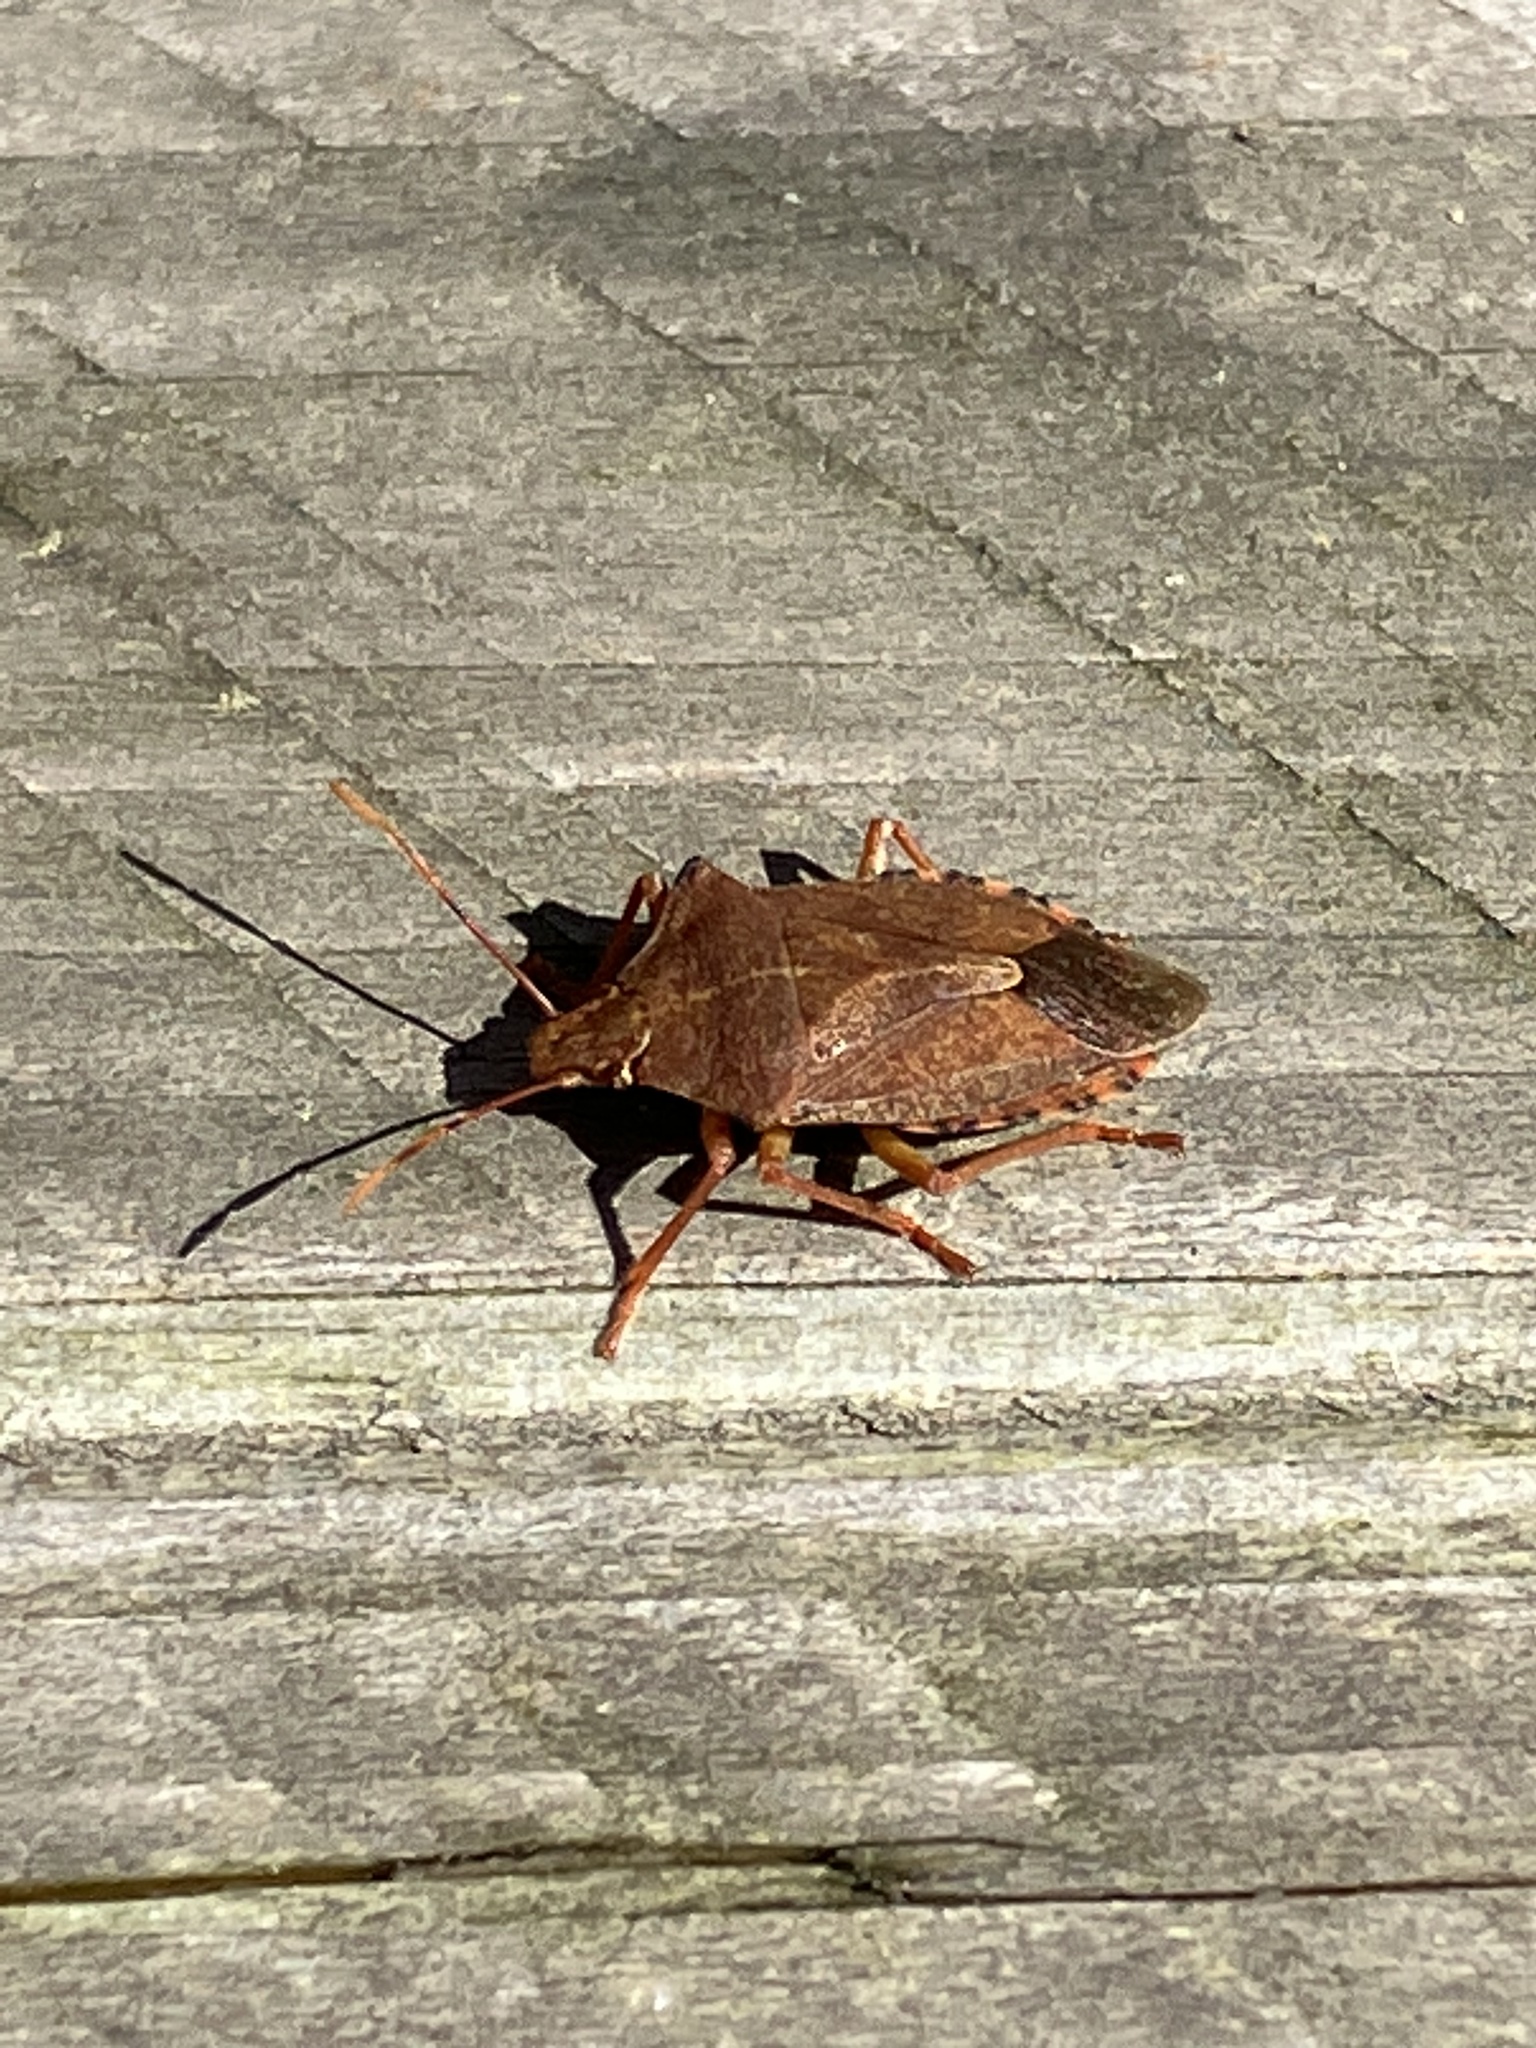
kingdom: Animalia
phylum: Arthropoda
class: Insecta
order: Hemiptera
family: Pentatomidae
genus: Arma
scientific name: Arma custos
